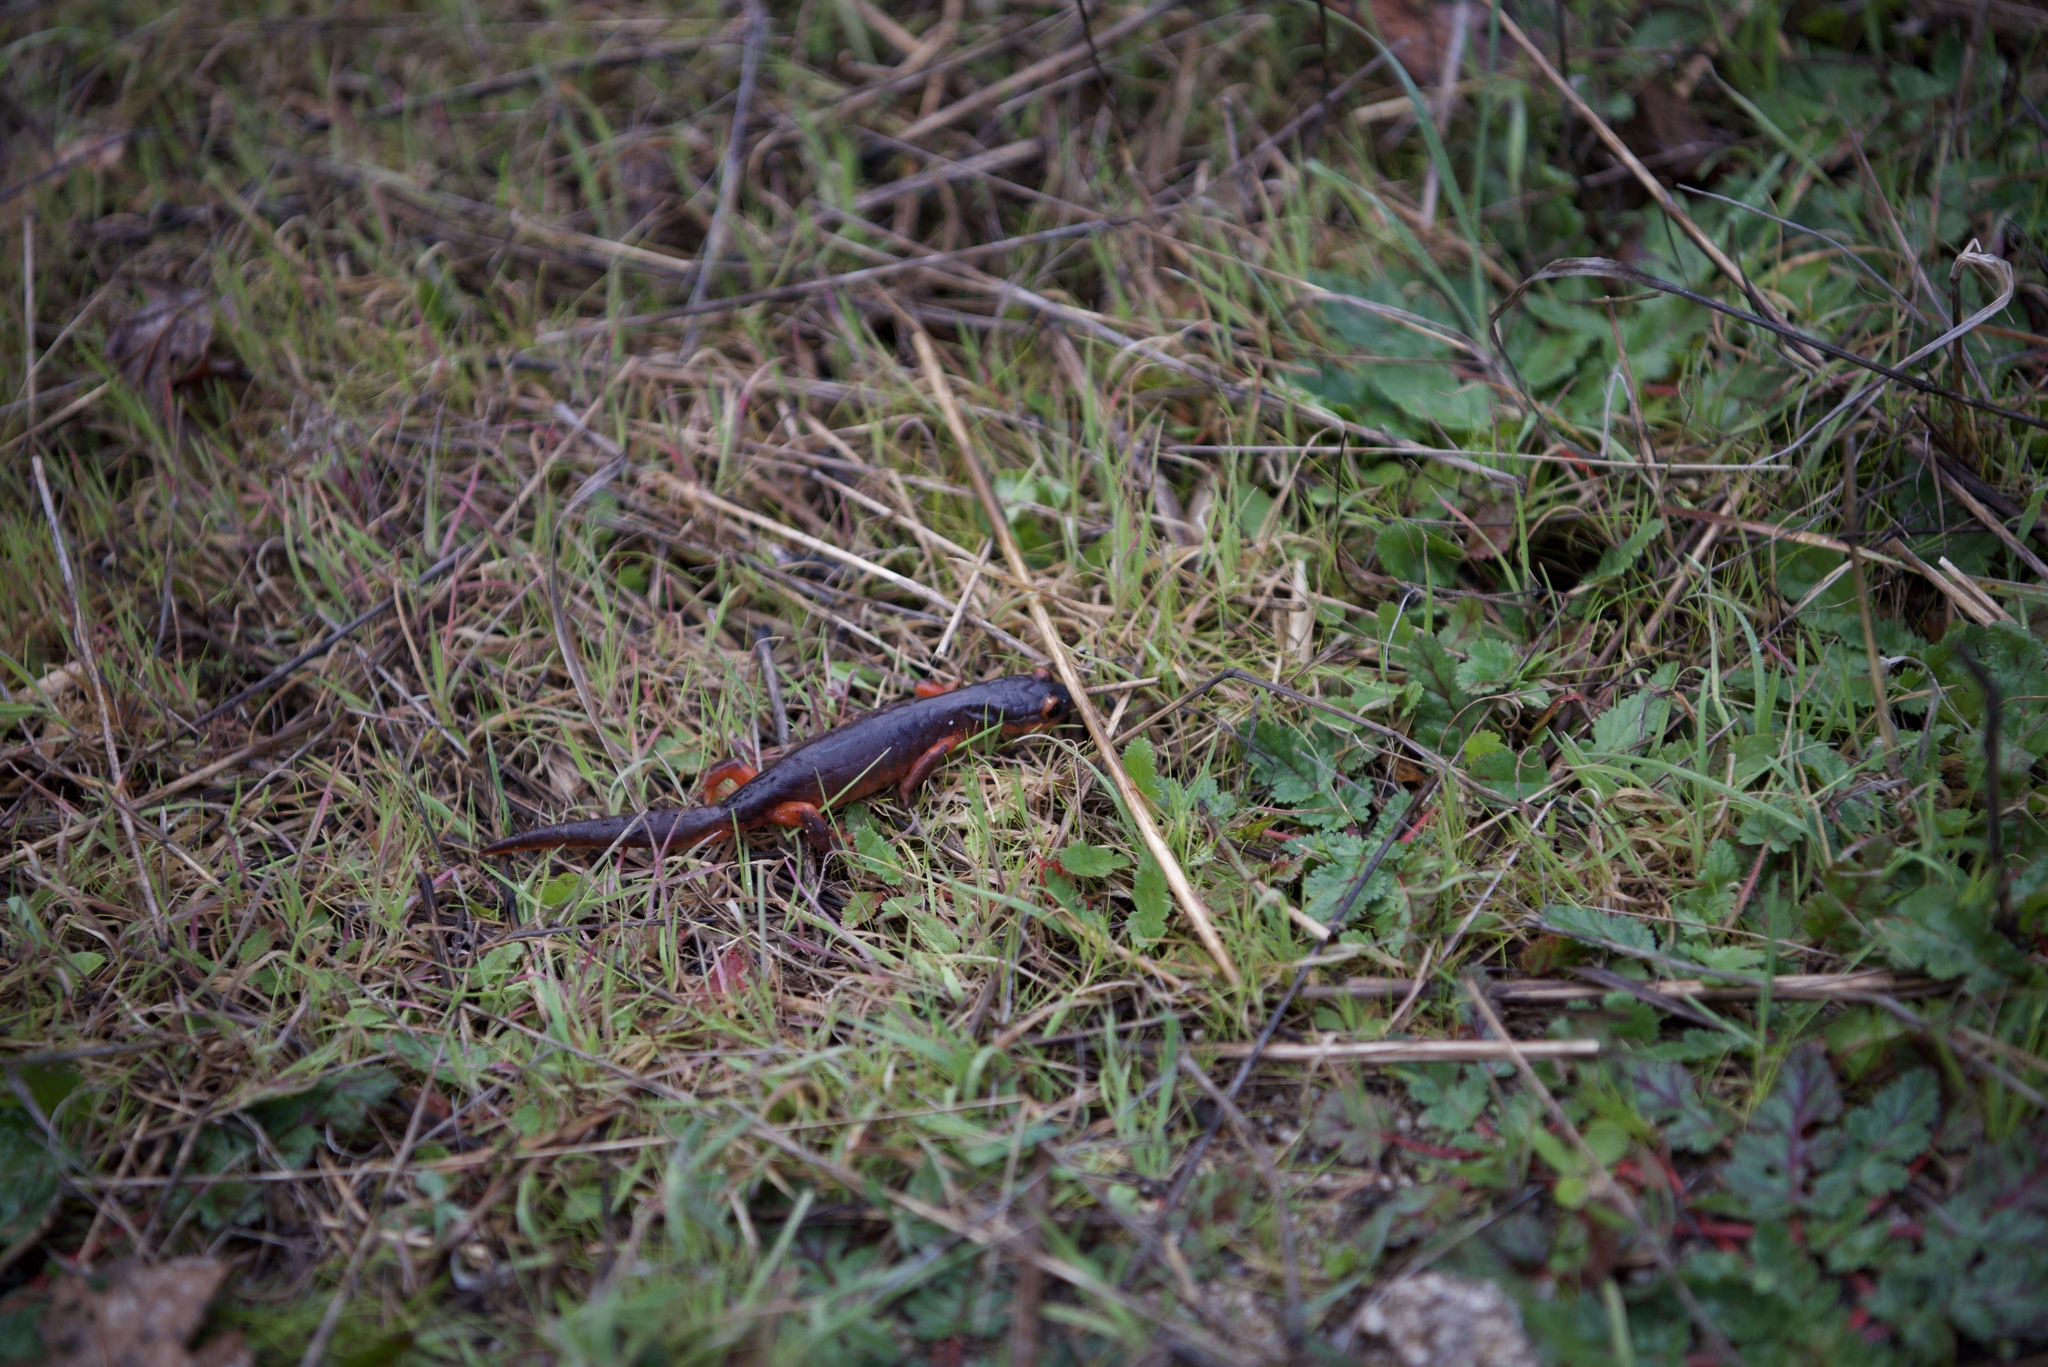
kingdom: Animalia
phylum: Chordata
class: Amphibia
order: Caudata
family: Plethodontidae
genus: Ensatina
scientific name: Ensatina eschscholtzii
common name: Ensatina
